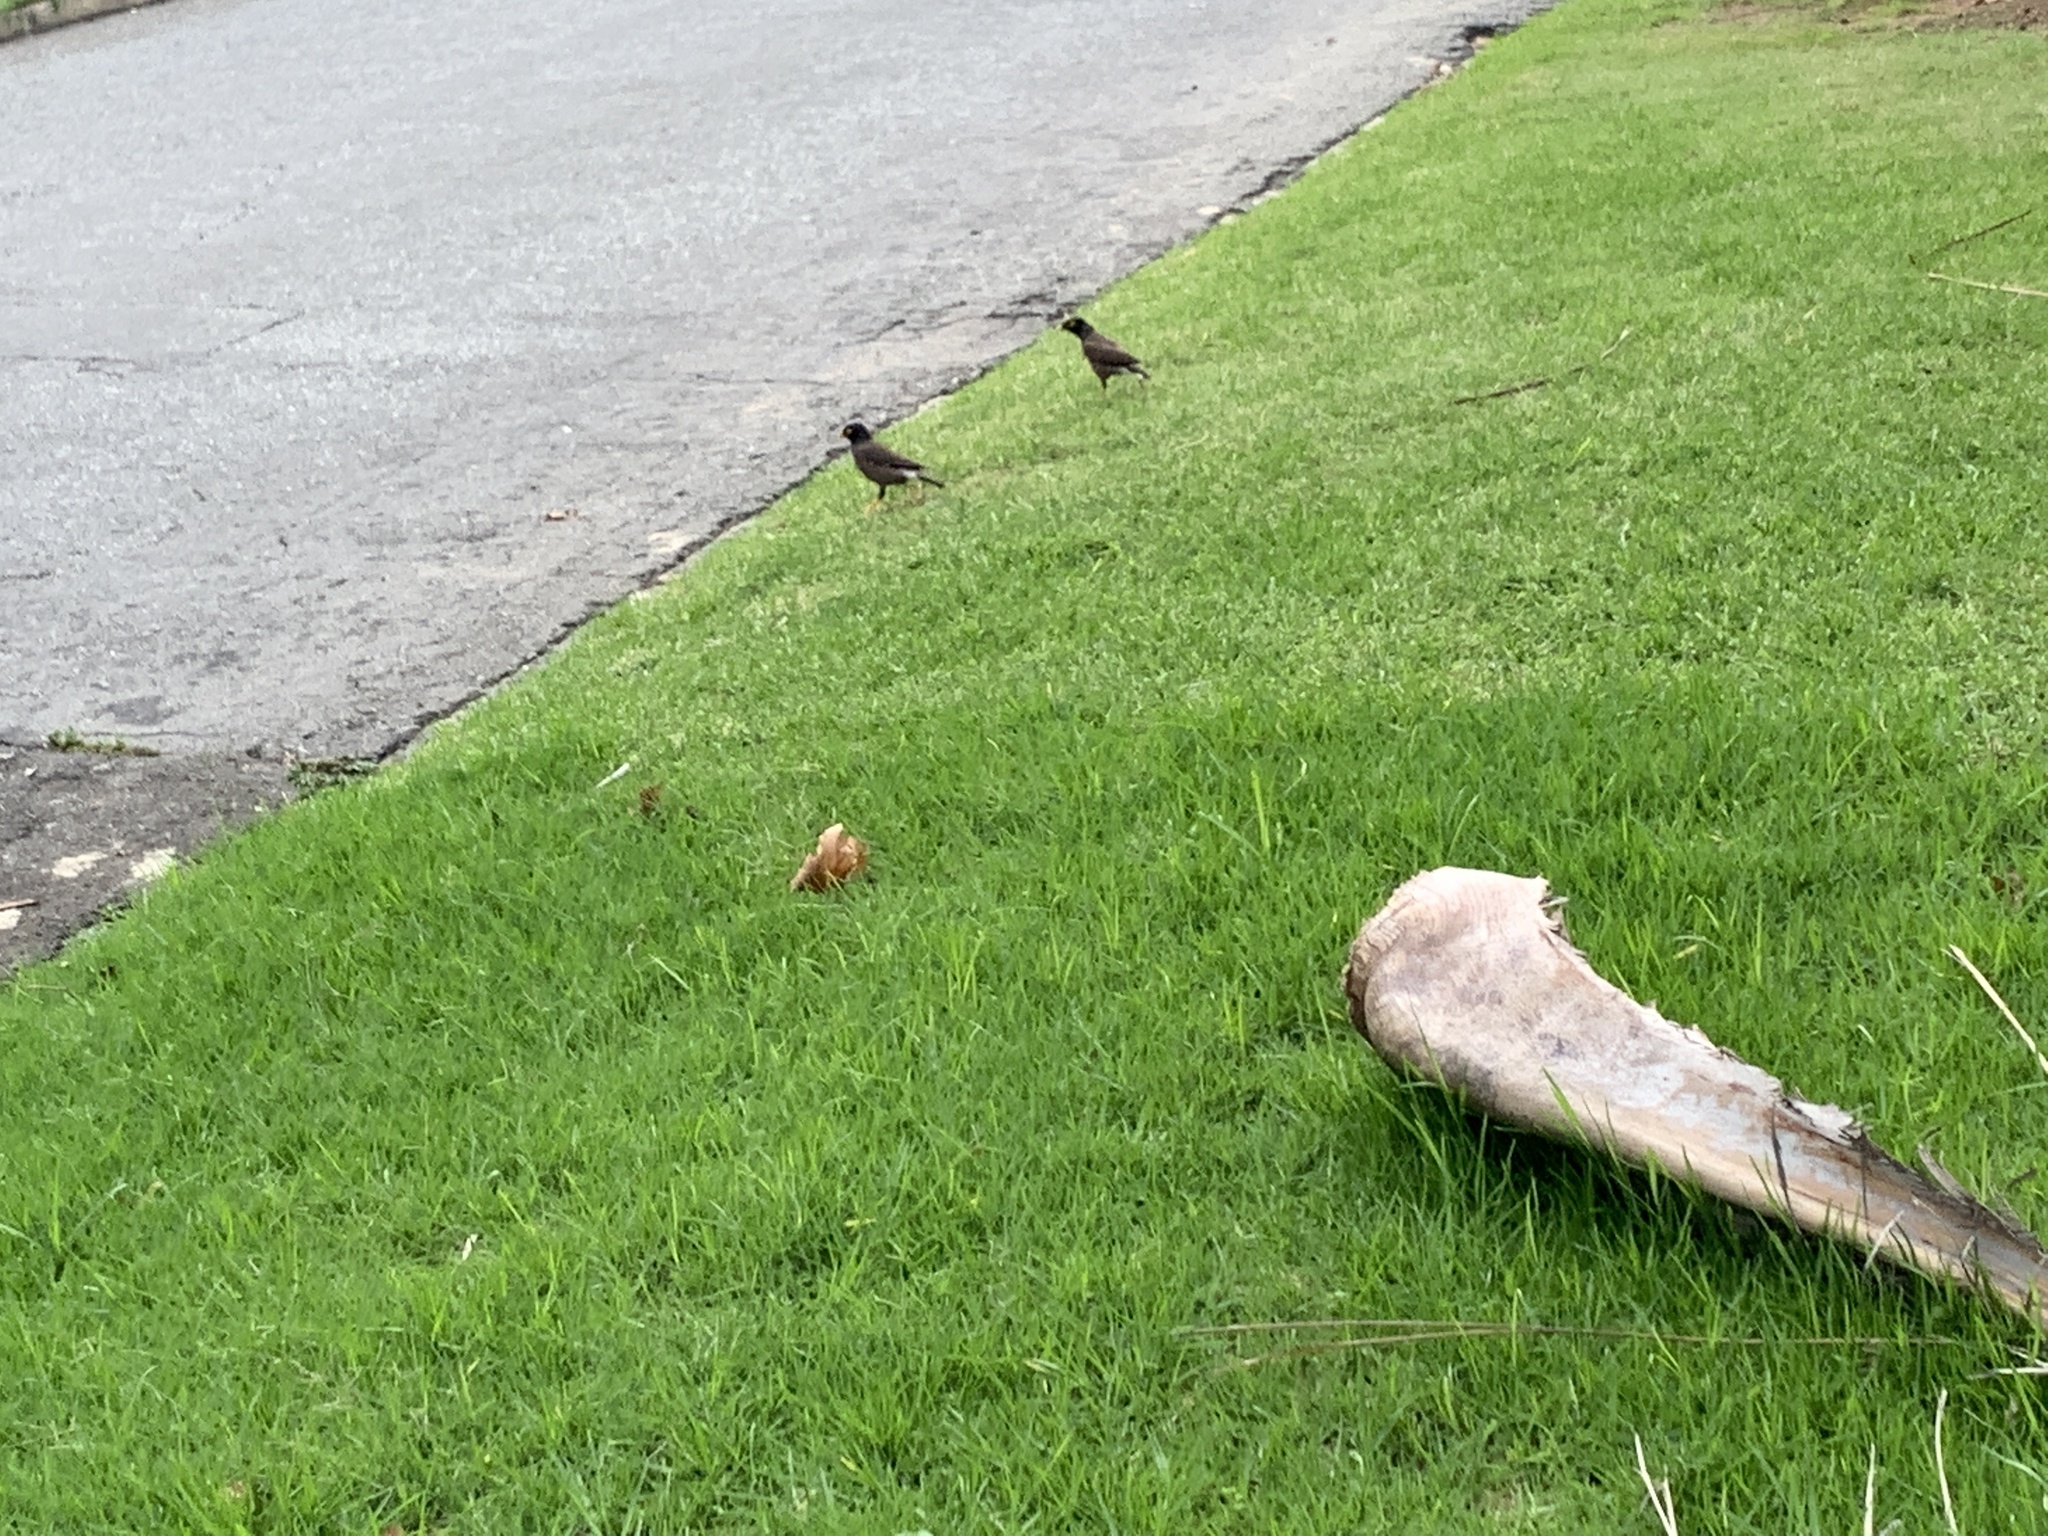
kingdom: Animalia
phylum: Chordata
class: Aves
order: Passeriformes
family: Sturnidae
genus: Acridotheres
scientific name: Acridotheres tristis
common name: Common myna
